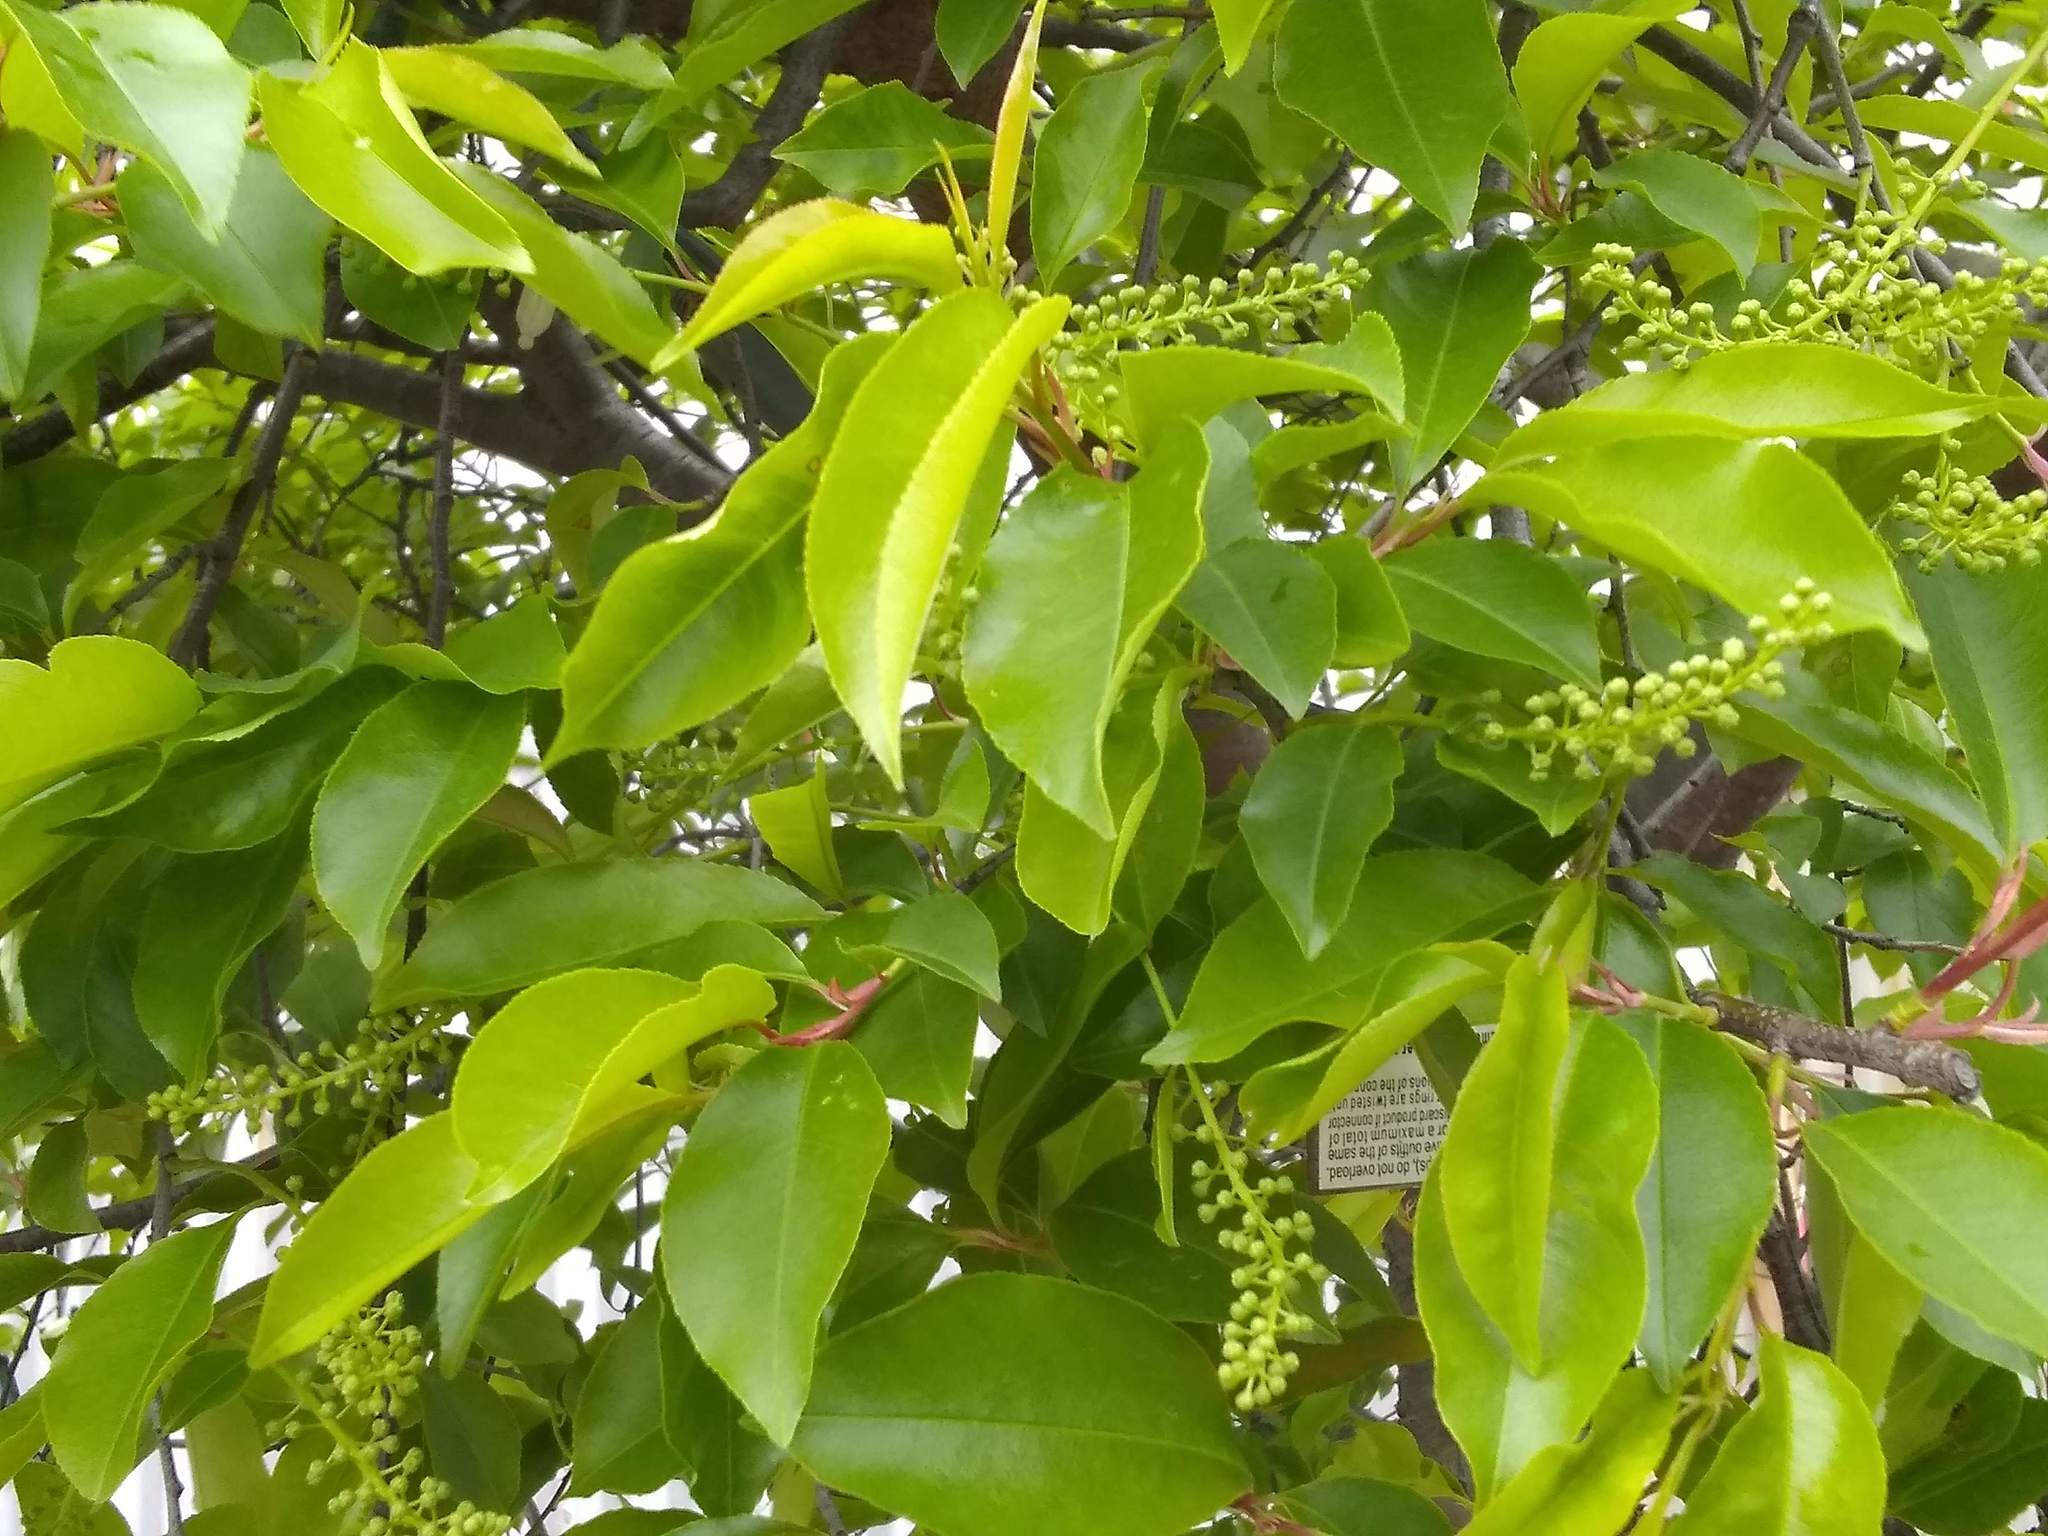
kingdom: Plantae
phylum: Tracheophyta
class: Magnoliopsida
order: Rosales
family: Rosaceae
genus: Prunus
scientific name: Prunus serotina
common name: Black cherry
